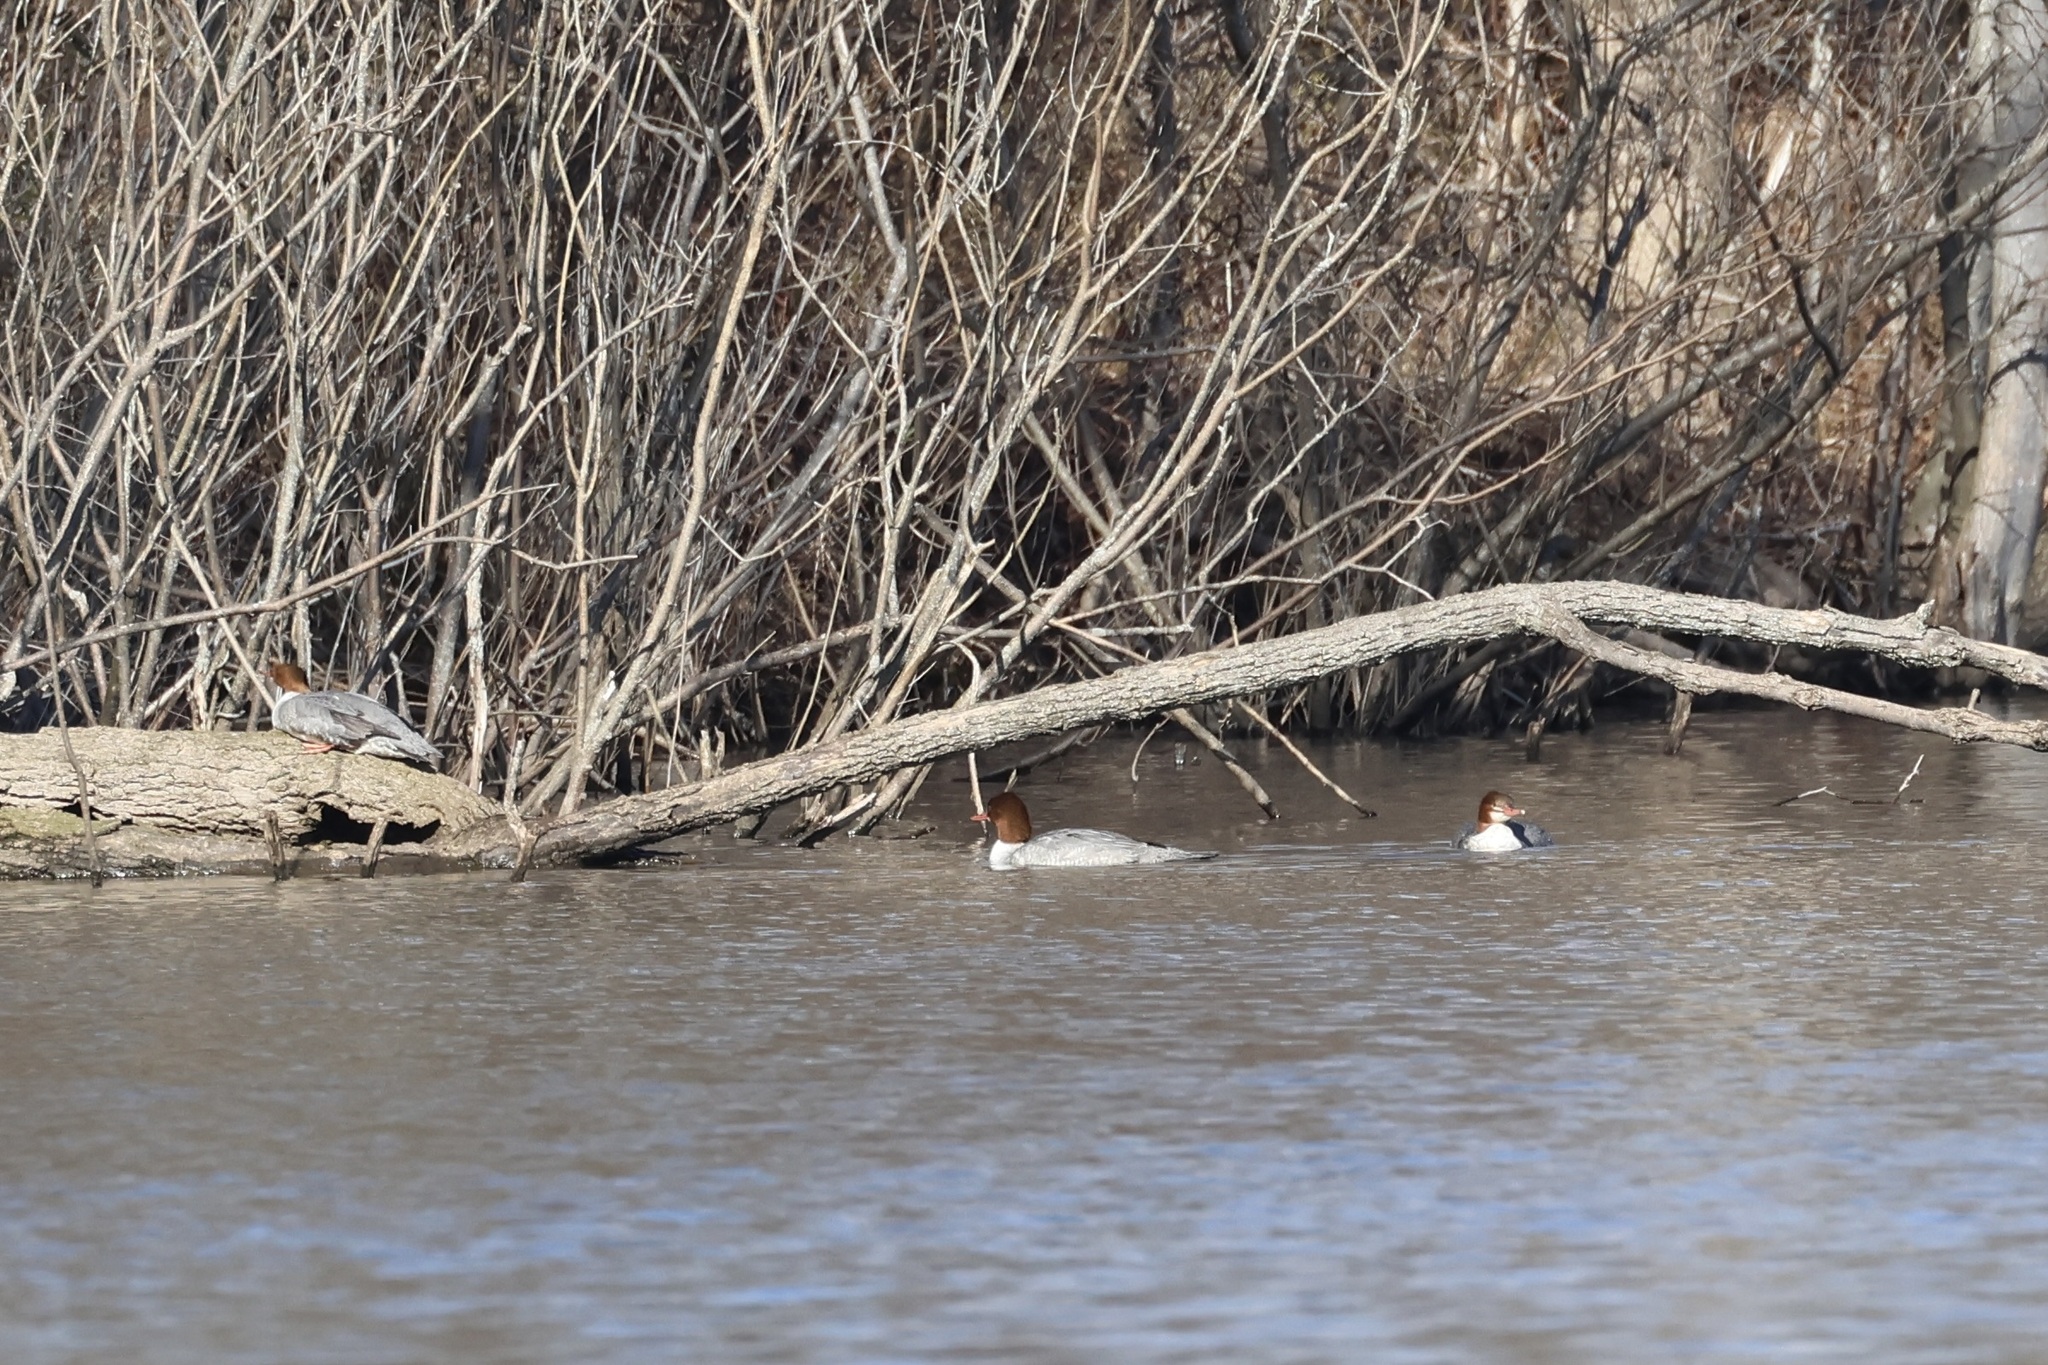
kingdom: Animalia
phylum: Chordata
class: Aves
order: Anseriformes
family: Anatidae
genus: Mergus
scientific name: Mergus merganser
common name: Common merganser
